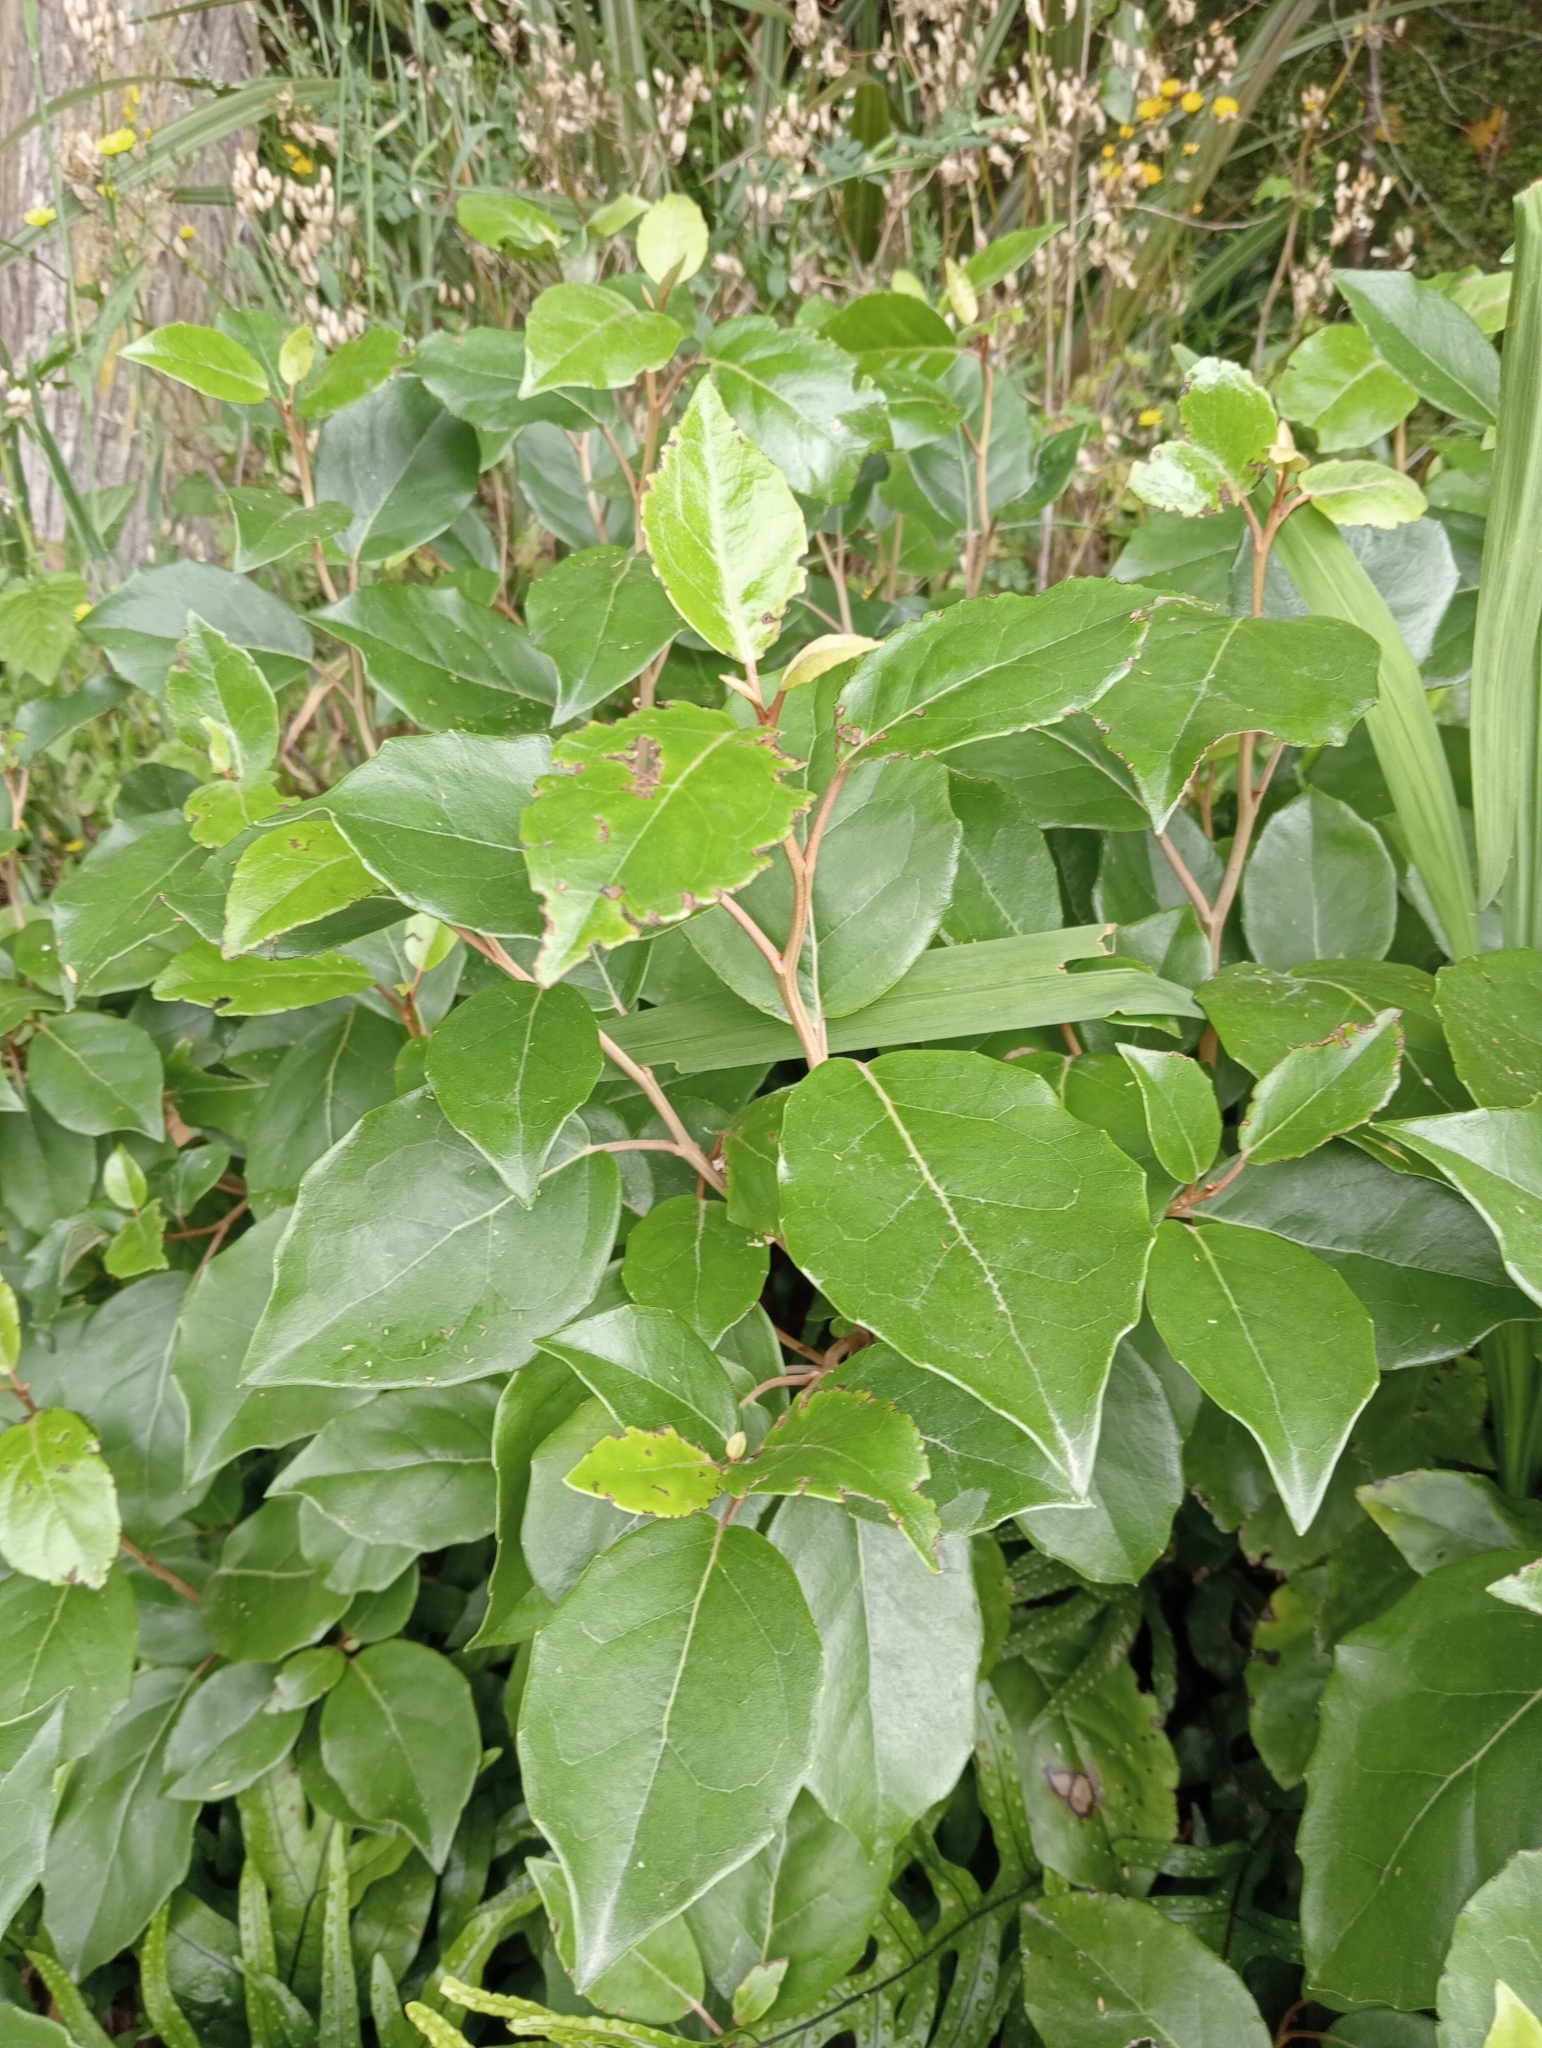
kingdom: Plantae
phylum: Tracheophyta
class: Magnoliopsida
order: Asterales
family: Asteraceae
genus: Olearia
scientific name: Olearia arborescens
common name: Glossy tree daisy
